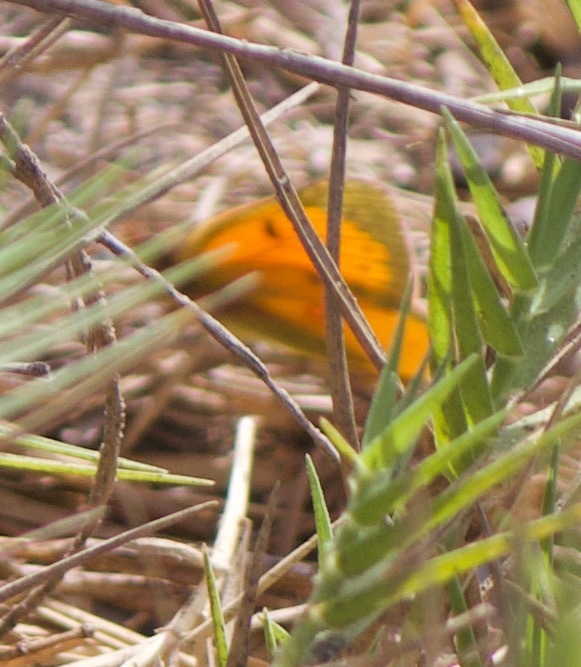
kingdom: Animalia
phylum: Arthropoda
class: Insecta
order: Lepidoptera
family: Pieridae
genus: Colias
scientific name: Colias vauthierii
